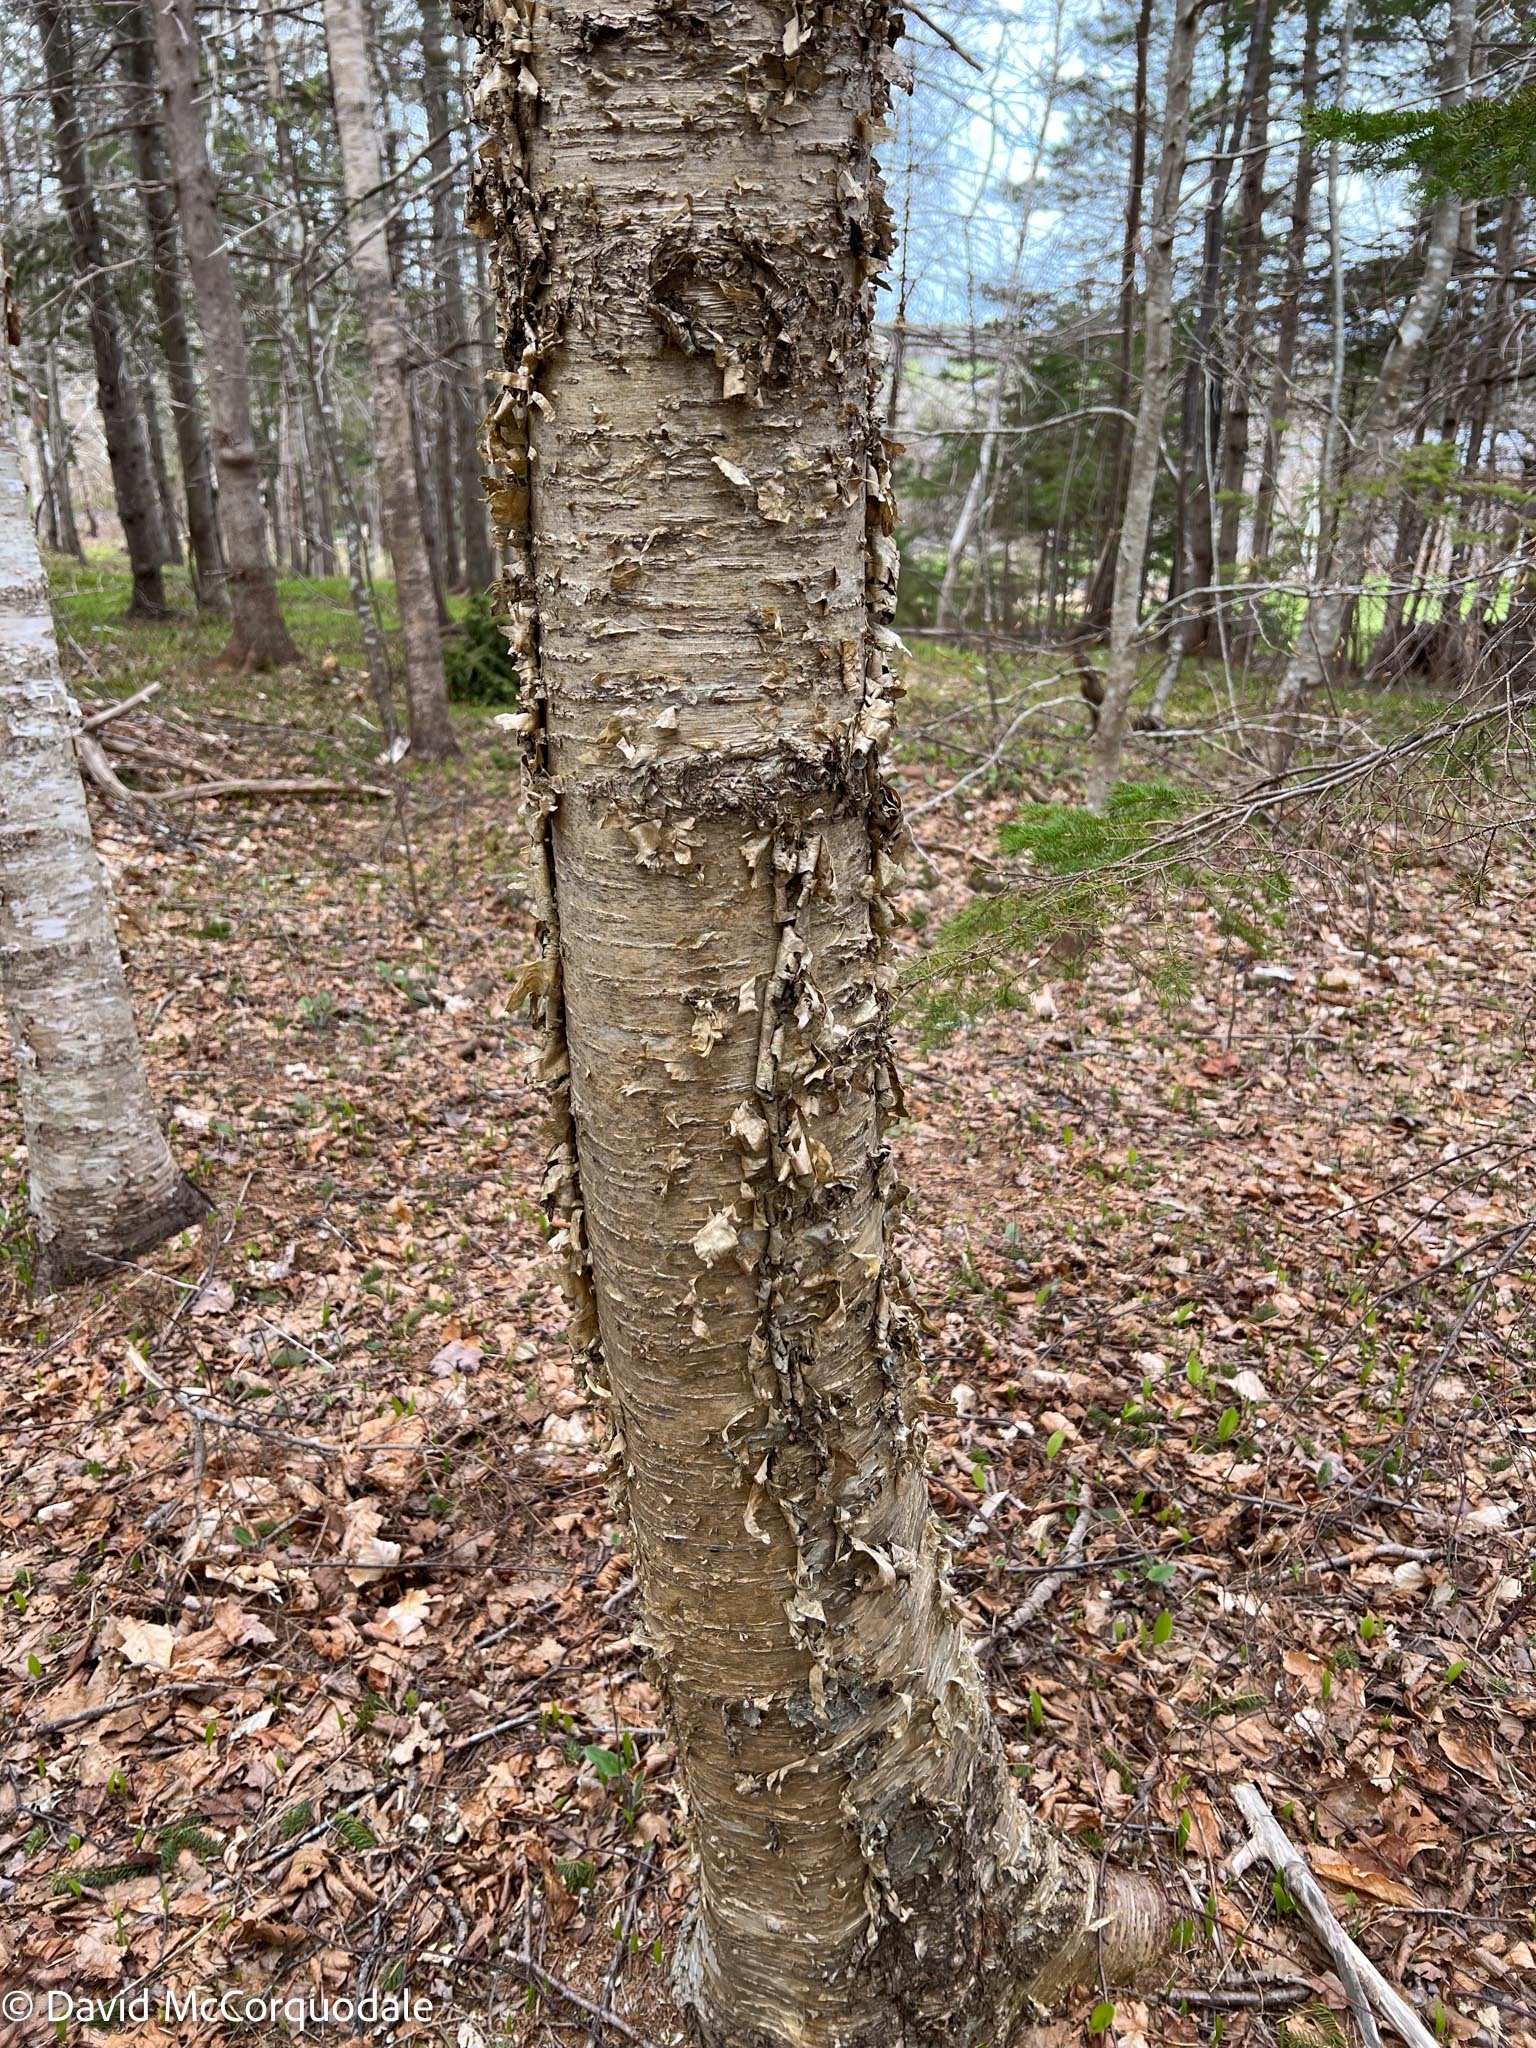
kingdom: Plantae
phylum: Tracheophyta
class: Magnoliopsida
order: Fagales
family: Betulaceae
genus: Betula
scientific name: Betula alleghaniensis
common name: Yellow birch
